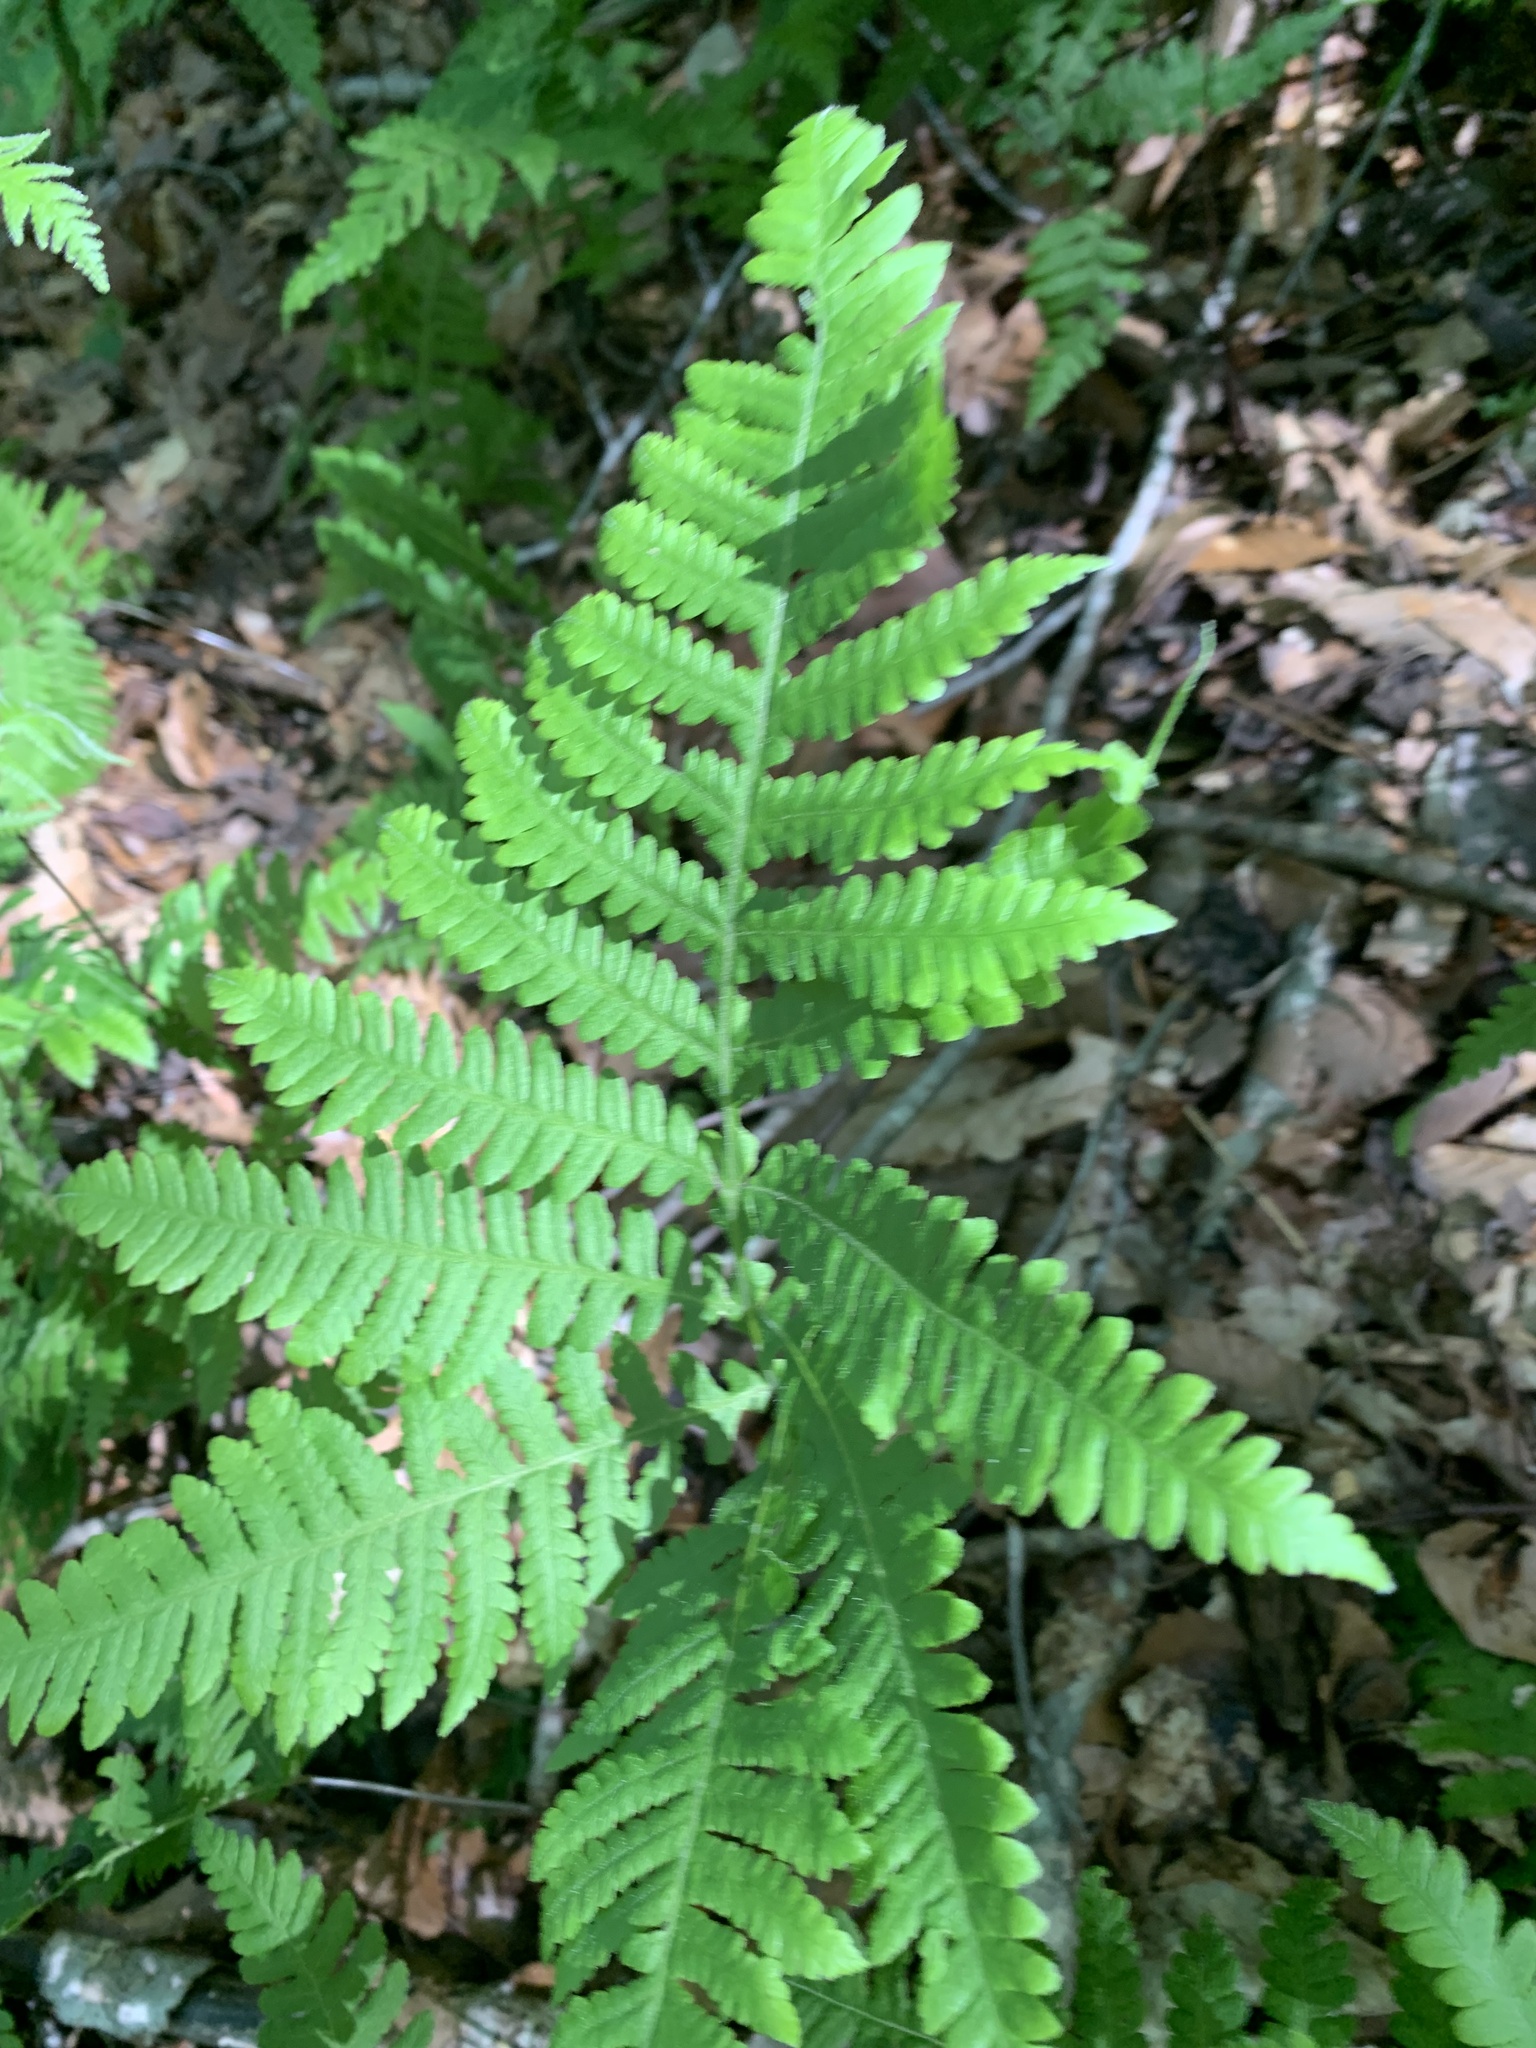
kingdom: Plantae
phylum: Tracheophyta
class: Polypodiopsida
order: Polypodiales
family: Thelypteridaceae
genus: Phegopteris
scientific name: Phegopteris hexagonoptera
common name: Broad beech fern
